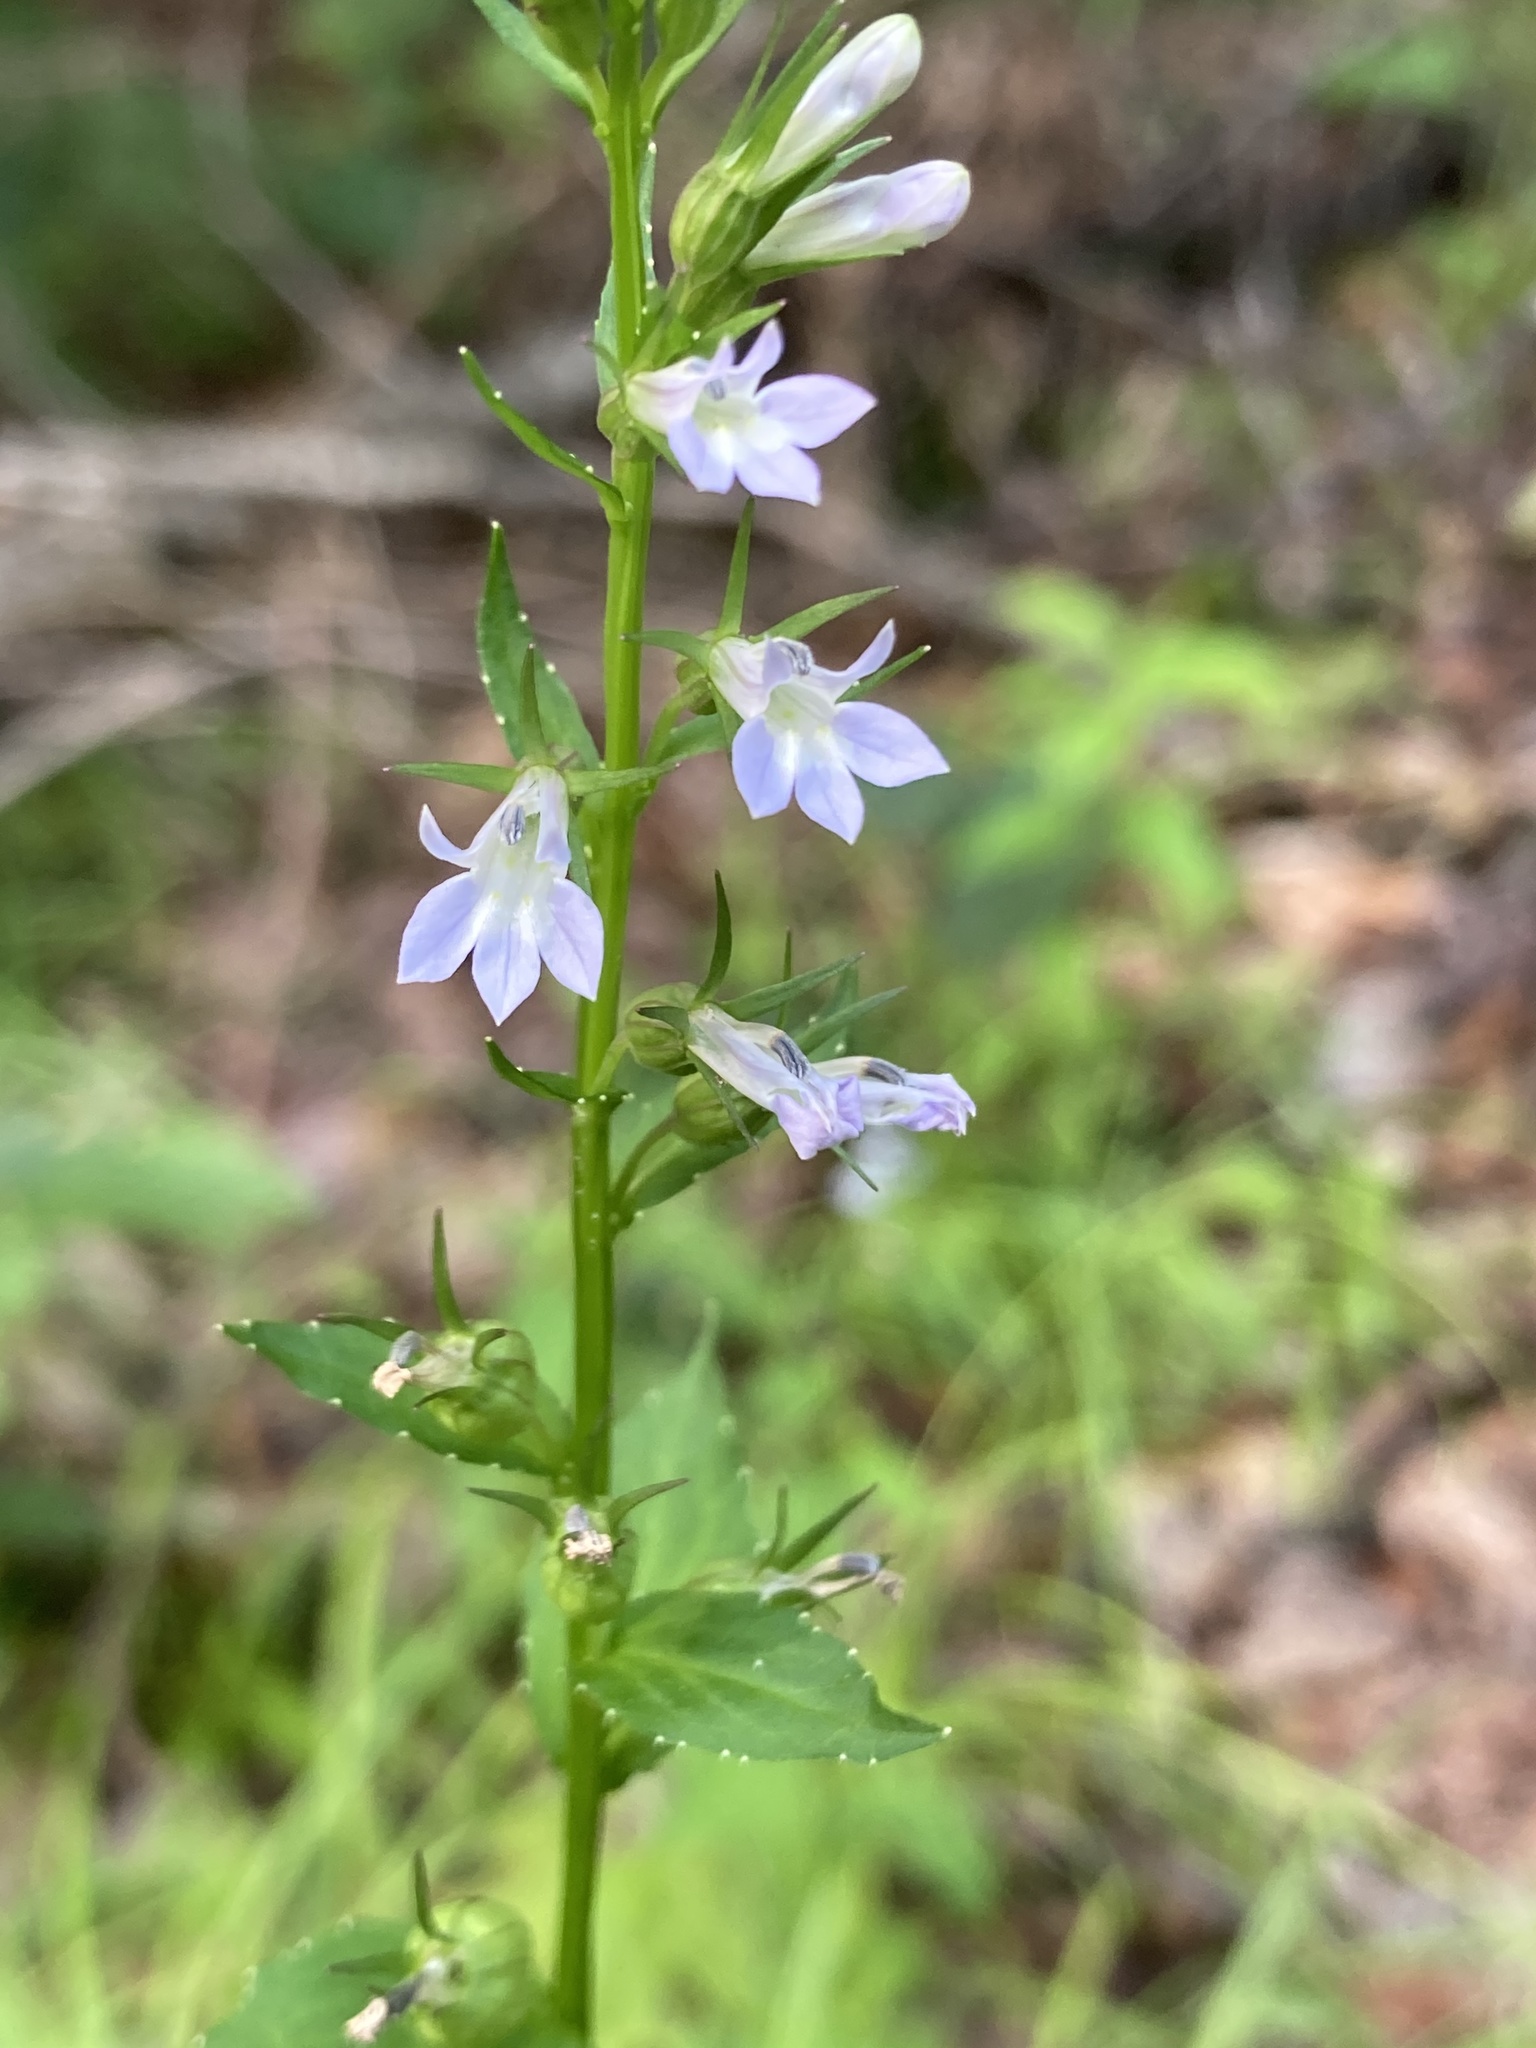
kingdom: Plantae
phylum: Tracheophyta
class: Magnoliopsida
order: Asterales
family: Campanulaceae
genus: Lobelia
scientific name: Lobelia inflata
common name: Indian tobacco
